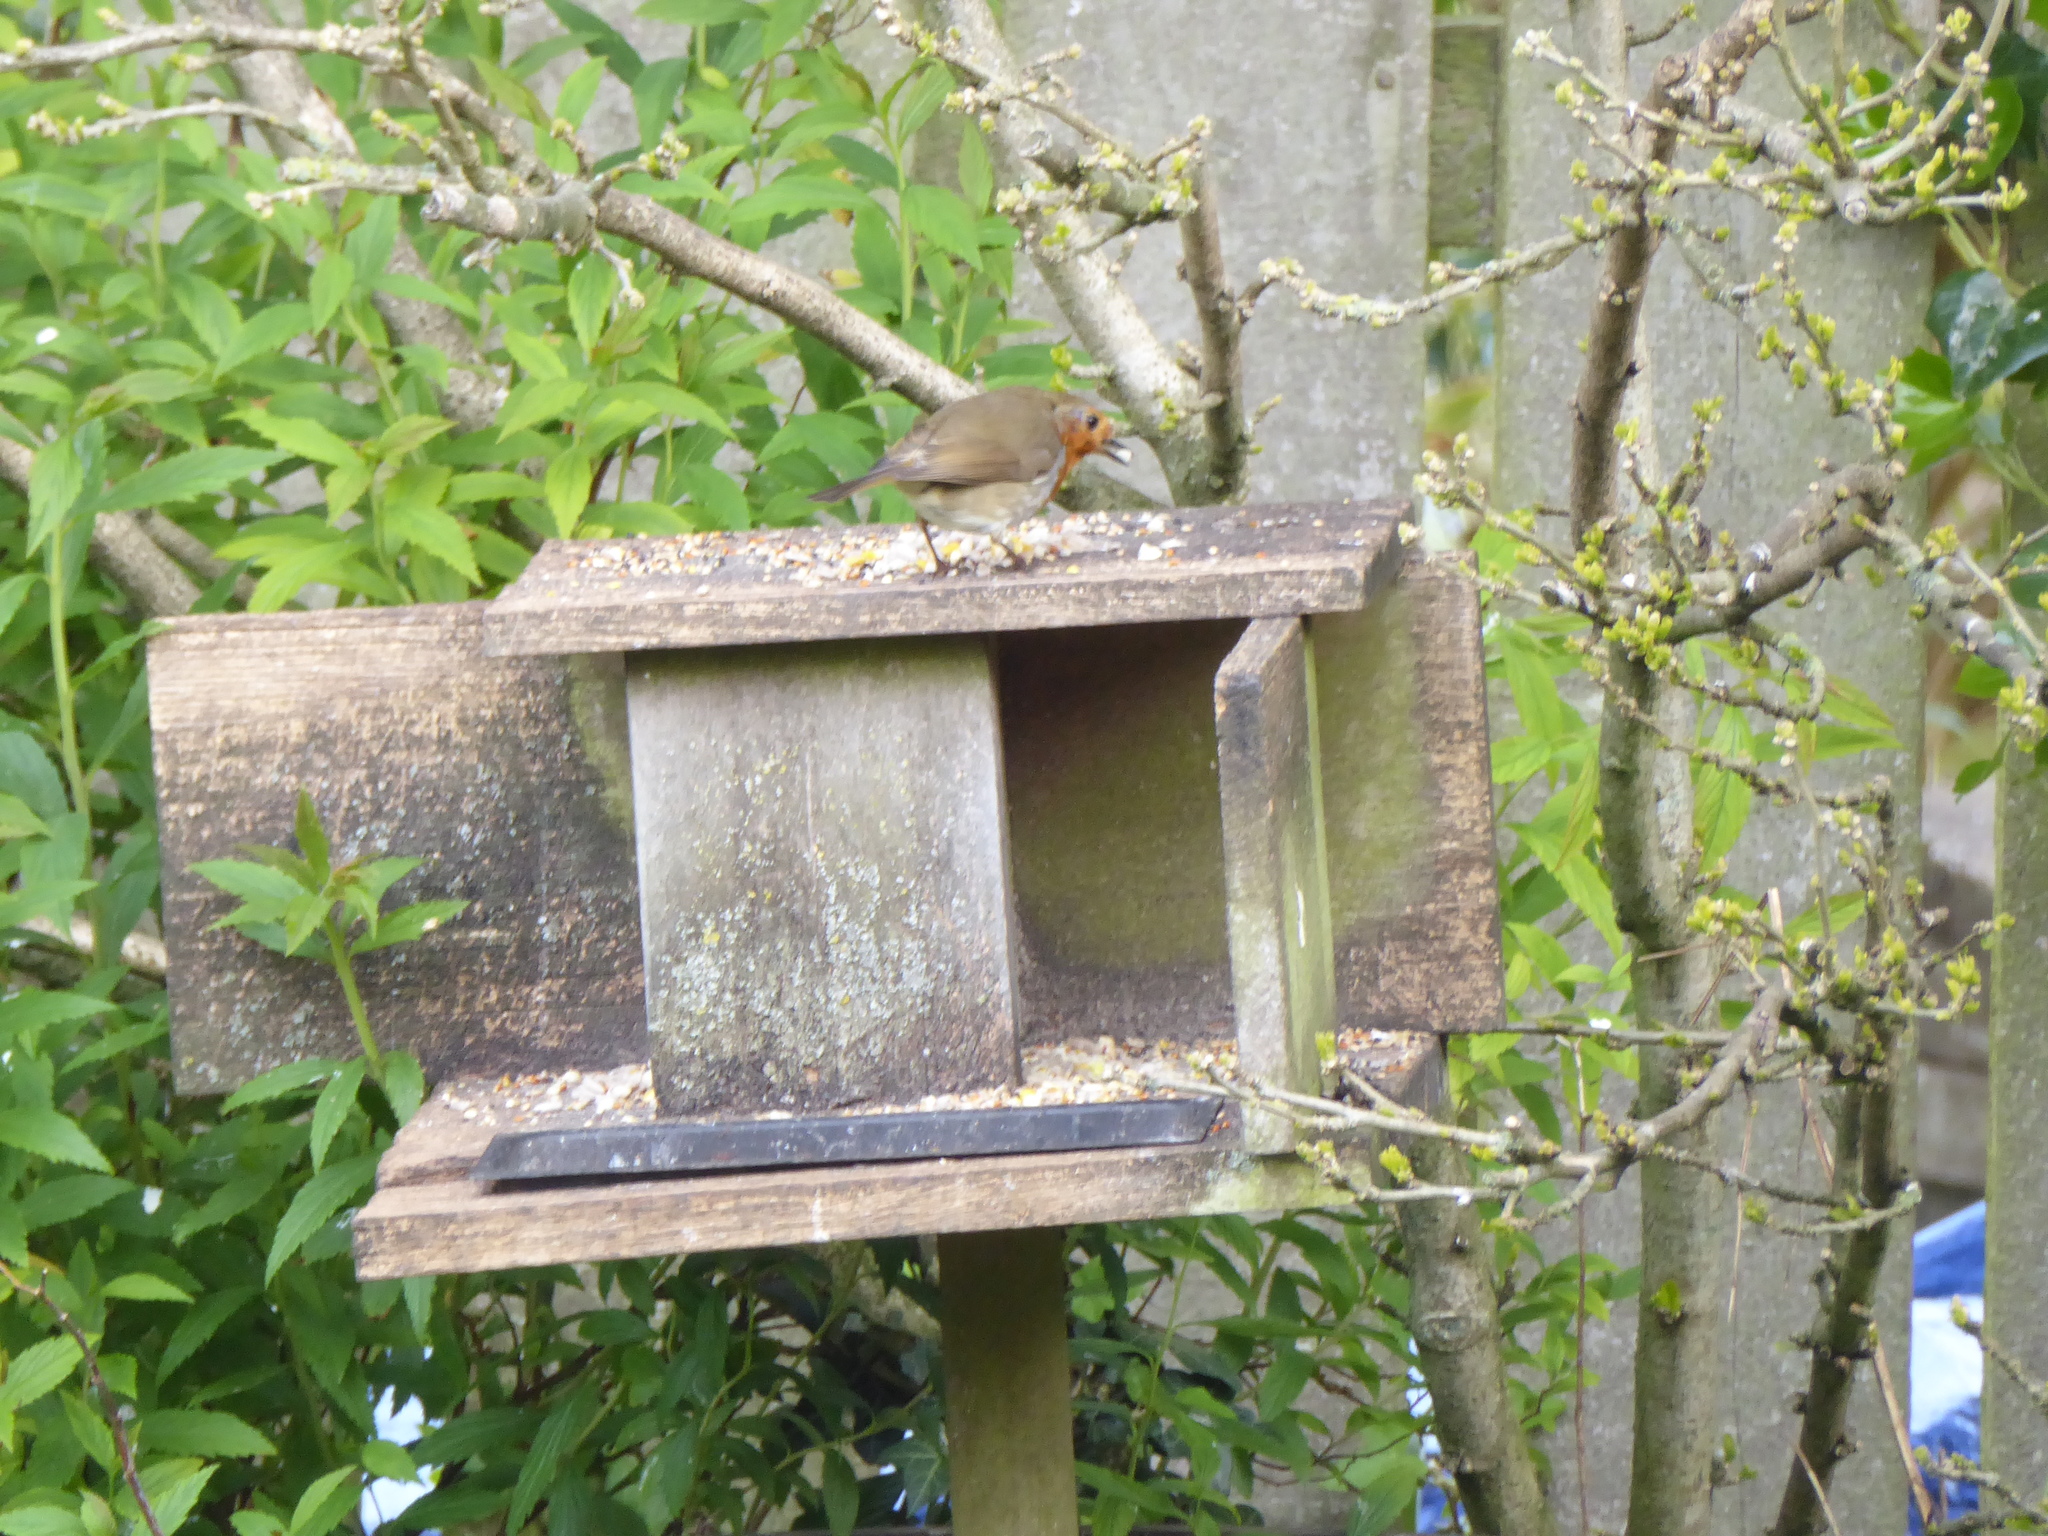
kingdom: Animalia
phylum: Chordata
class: Aves
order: Passeriformes
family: Muscicapidae
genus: Erithacus
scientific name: Erithacus rubecula
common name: European robin
